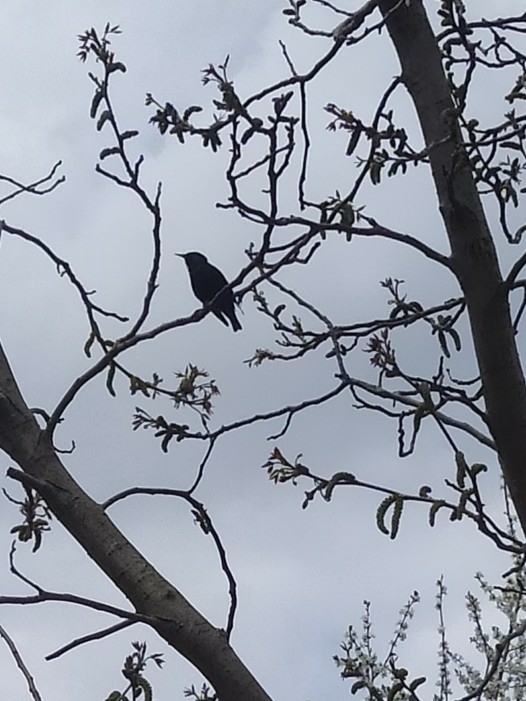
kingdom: Animalia
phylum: Chordata
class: Aves
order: Passeriformes
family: Sturnidae
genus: Sturnus
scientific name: Sturnus vulgaris
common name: Common starling
